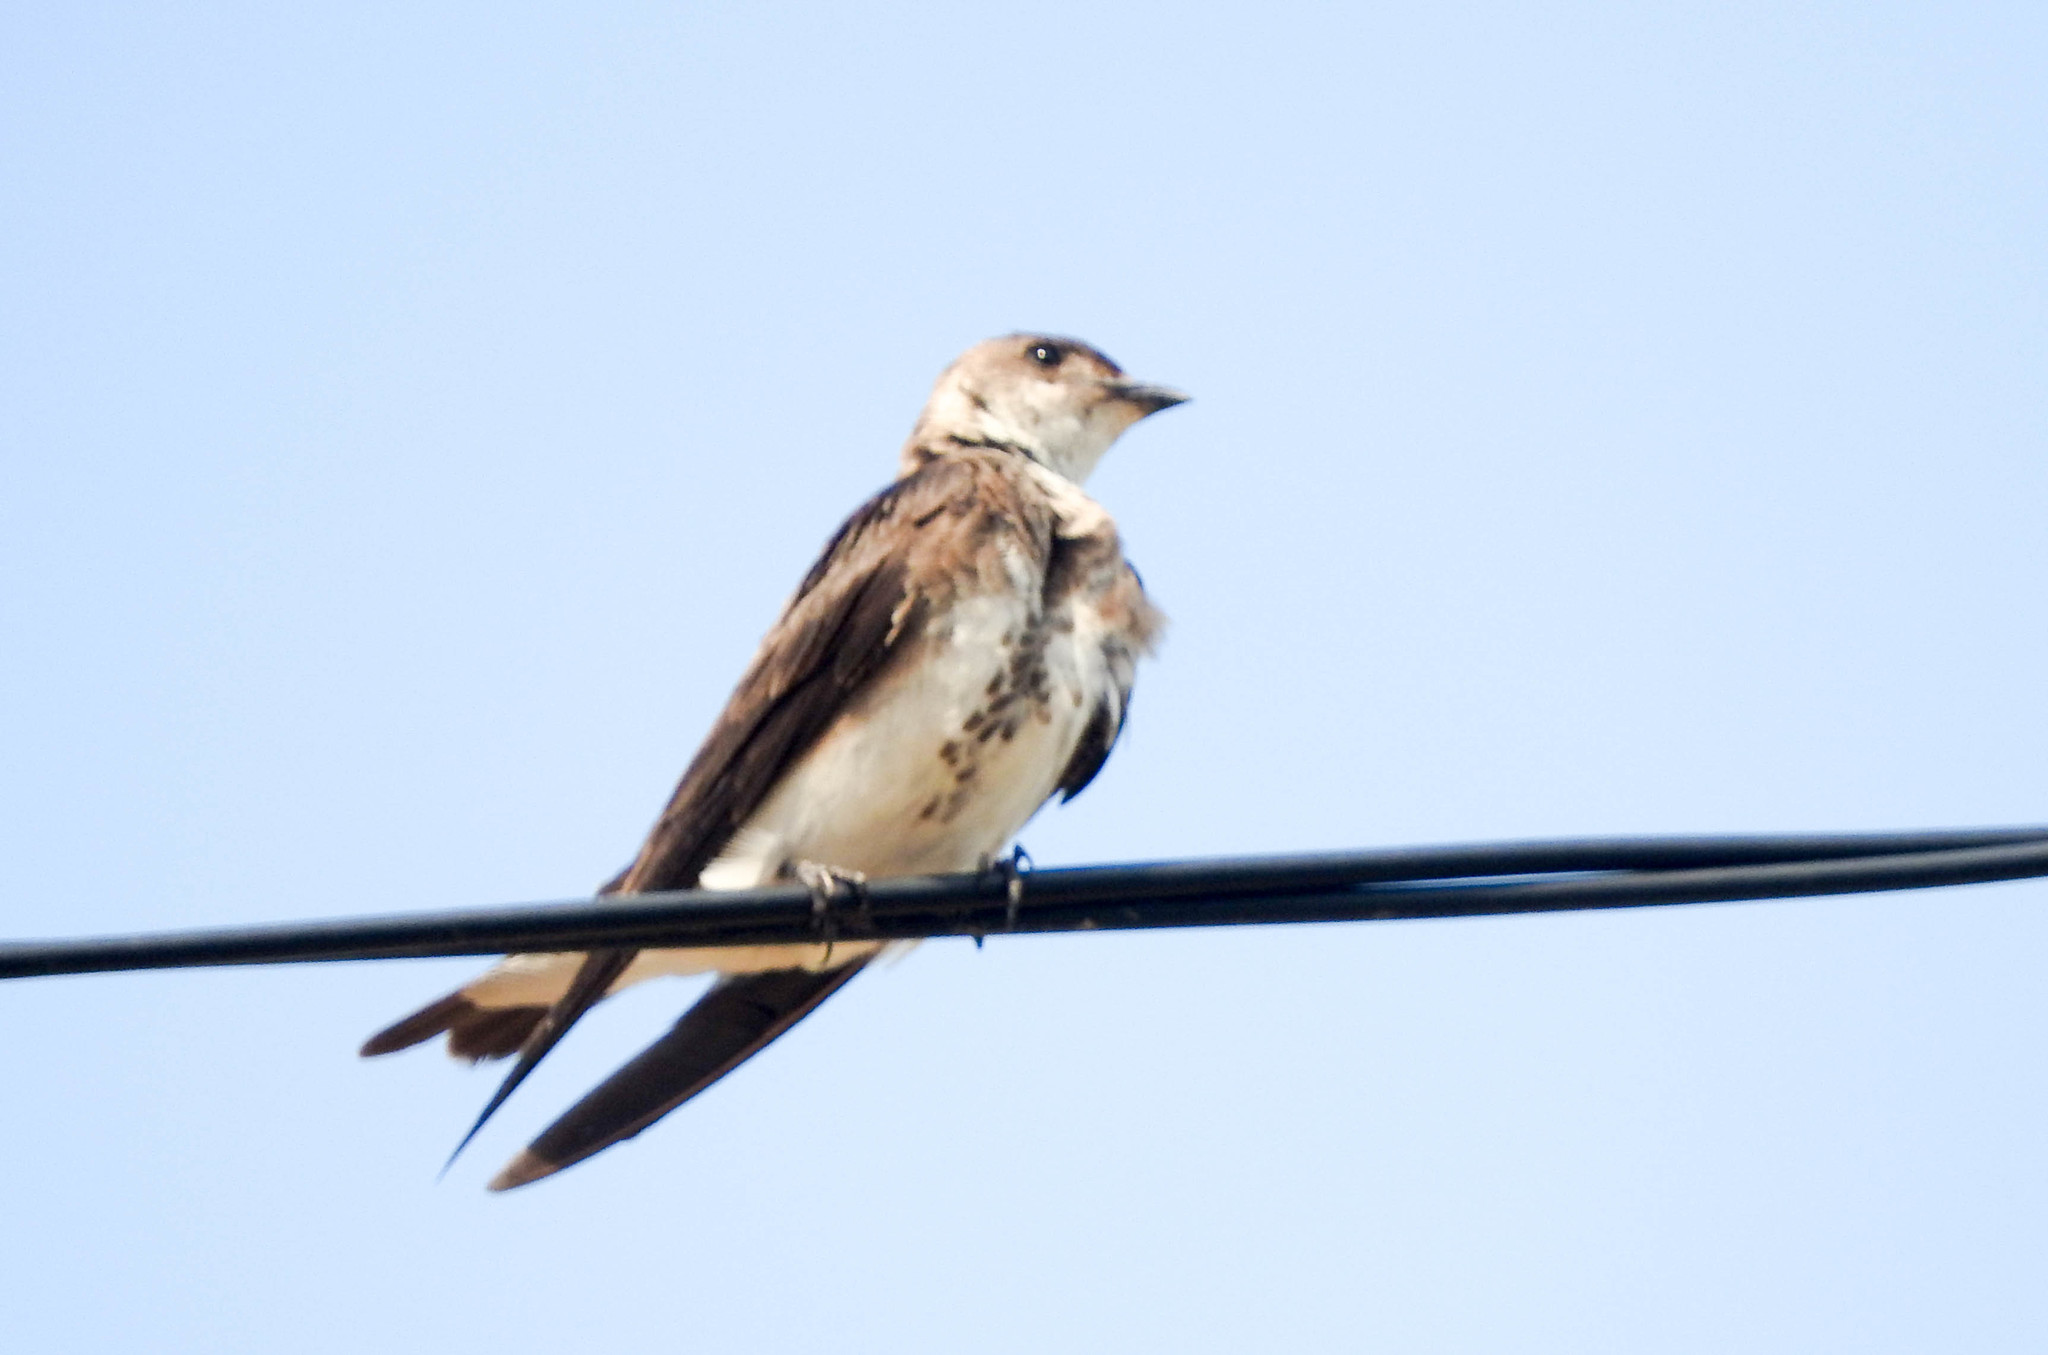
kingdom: Animalia
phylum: Chordata
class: Aves
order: Passeriformes
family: Hirundinidae
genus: Progne
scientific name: Progne tapera
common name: Brown-chested martin
